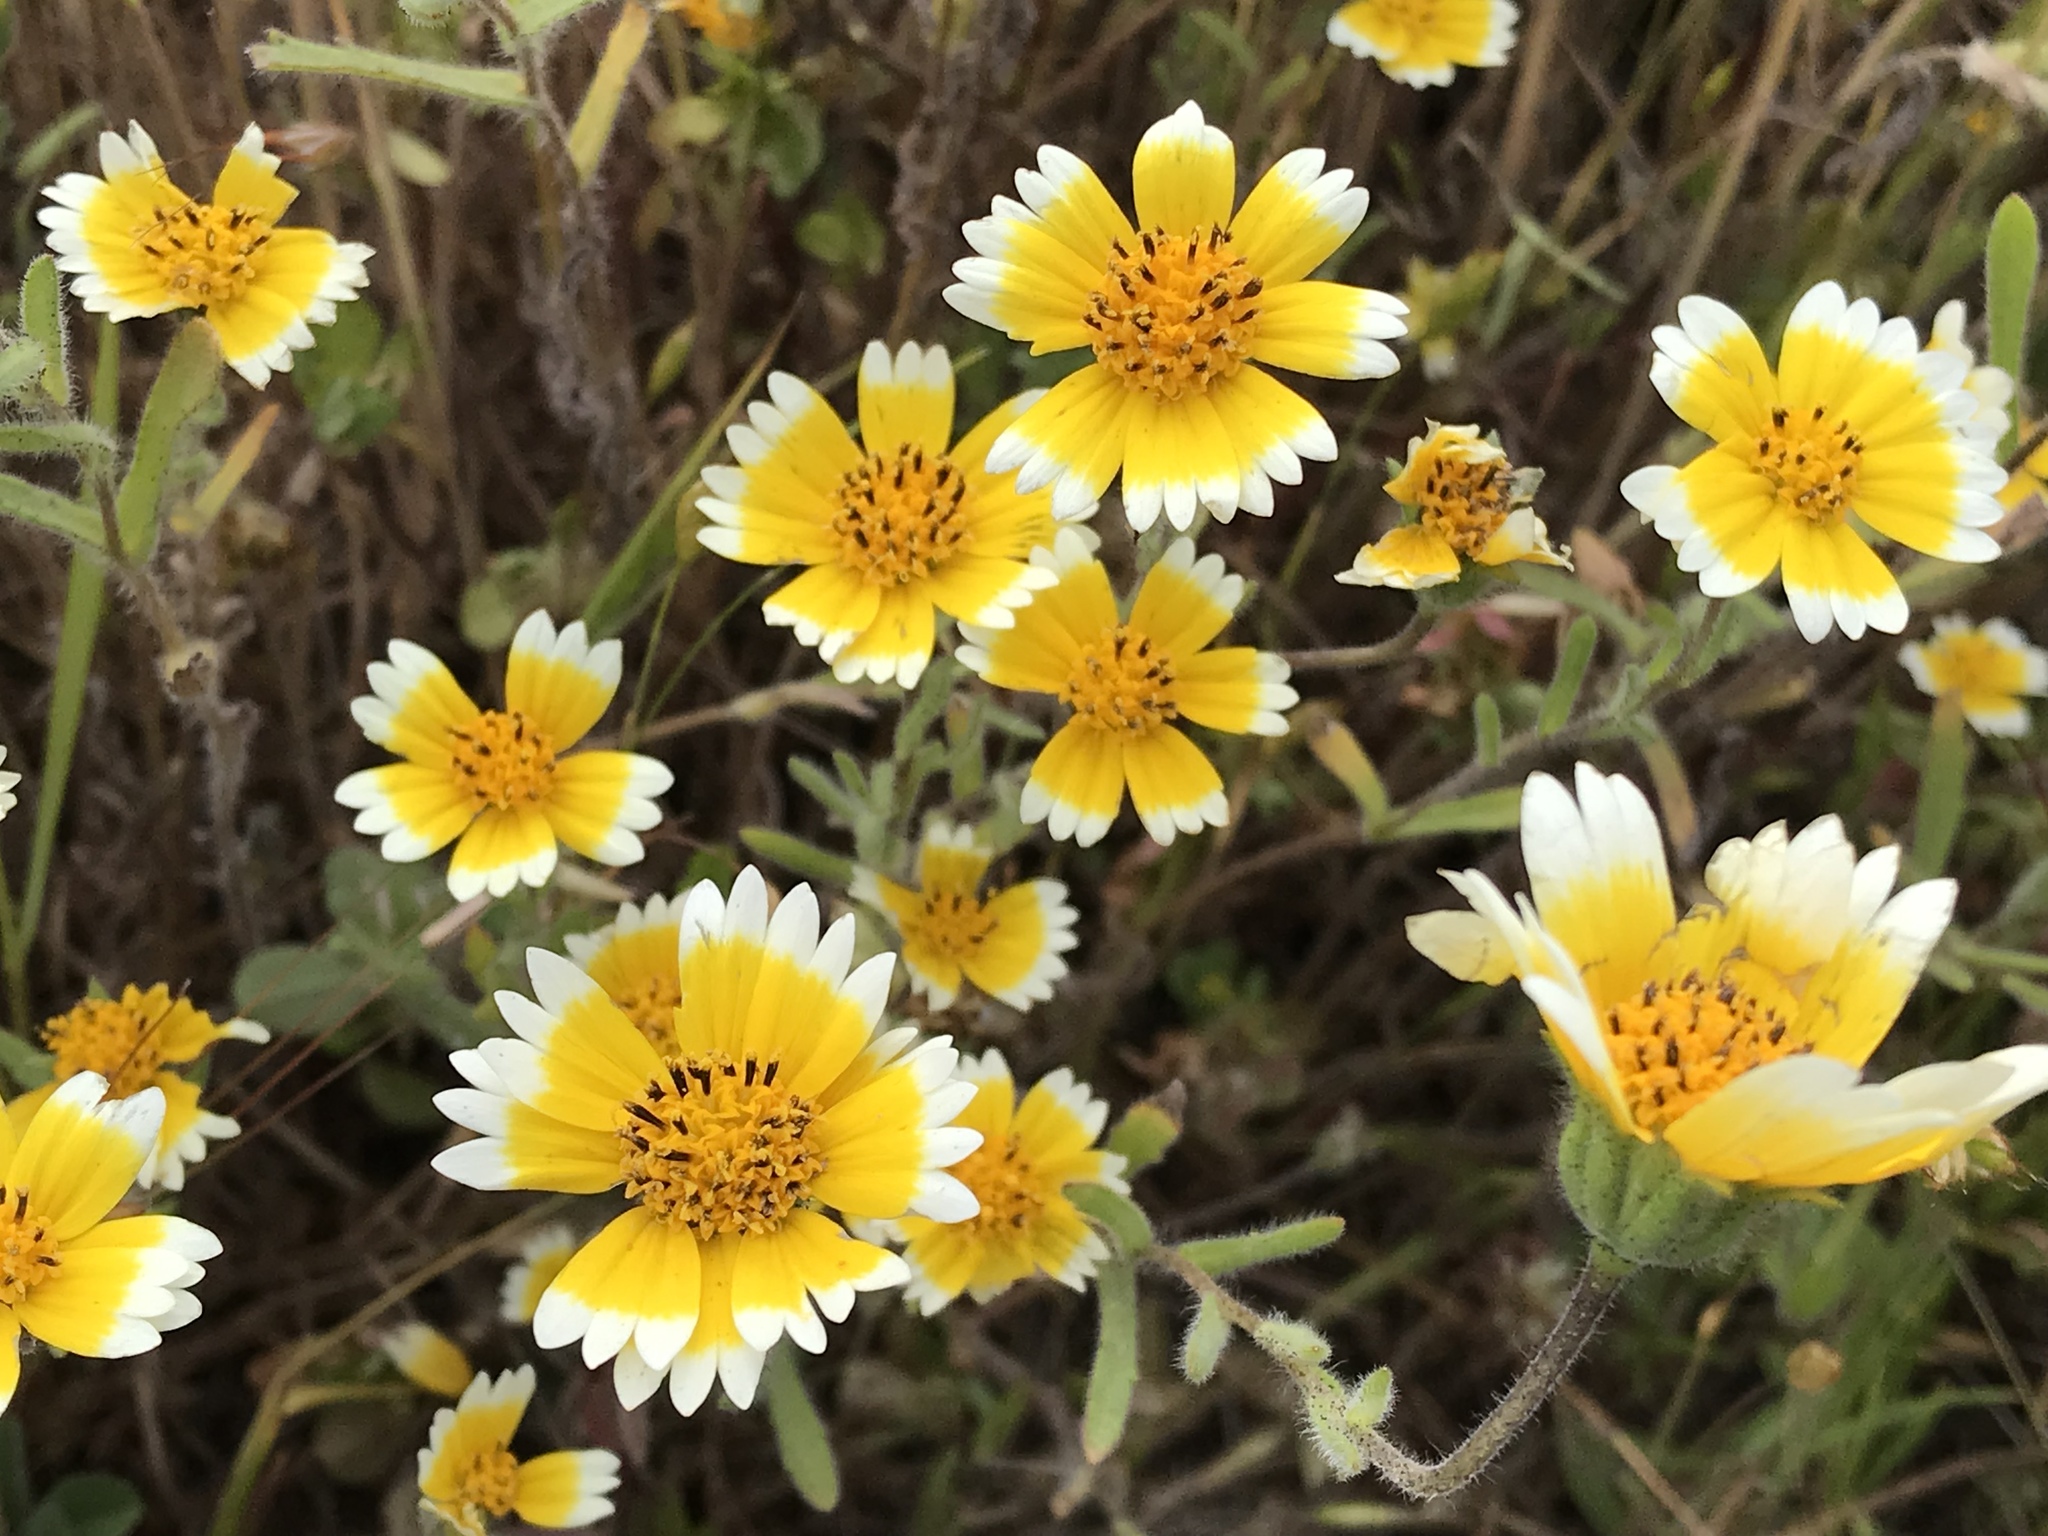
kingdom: Plantae
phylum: Tracheophyta
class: Magnoliopsida
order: Asterales
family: Asteraceae
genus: Layia
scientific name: Layia platyglossa
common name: Tidy-tips
